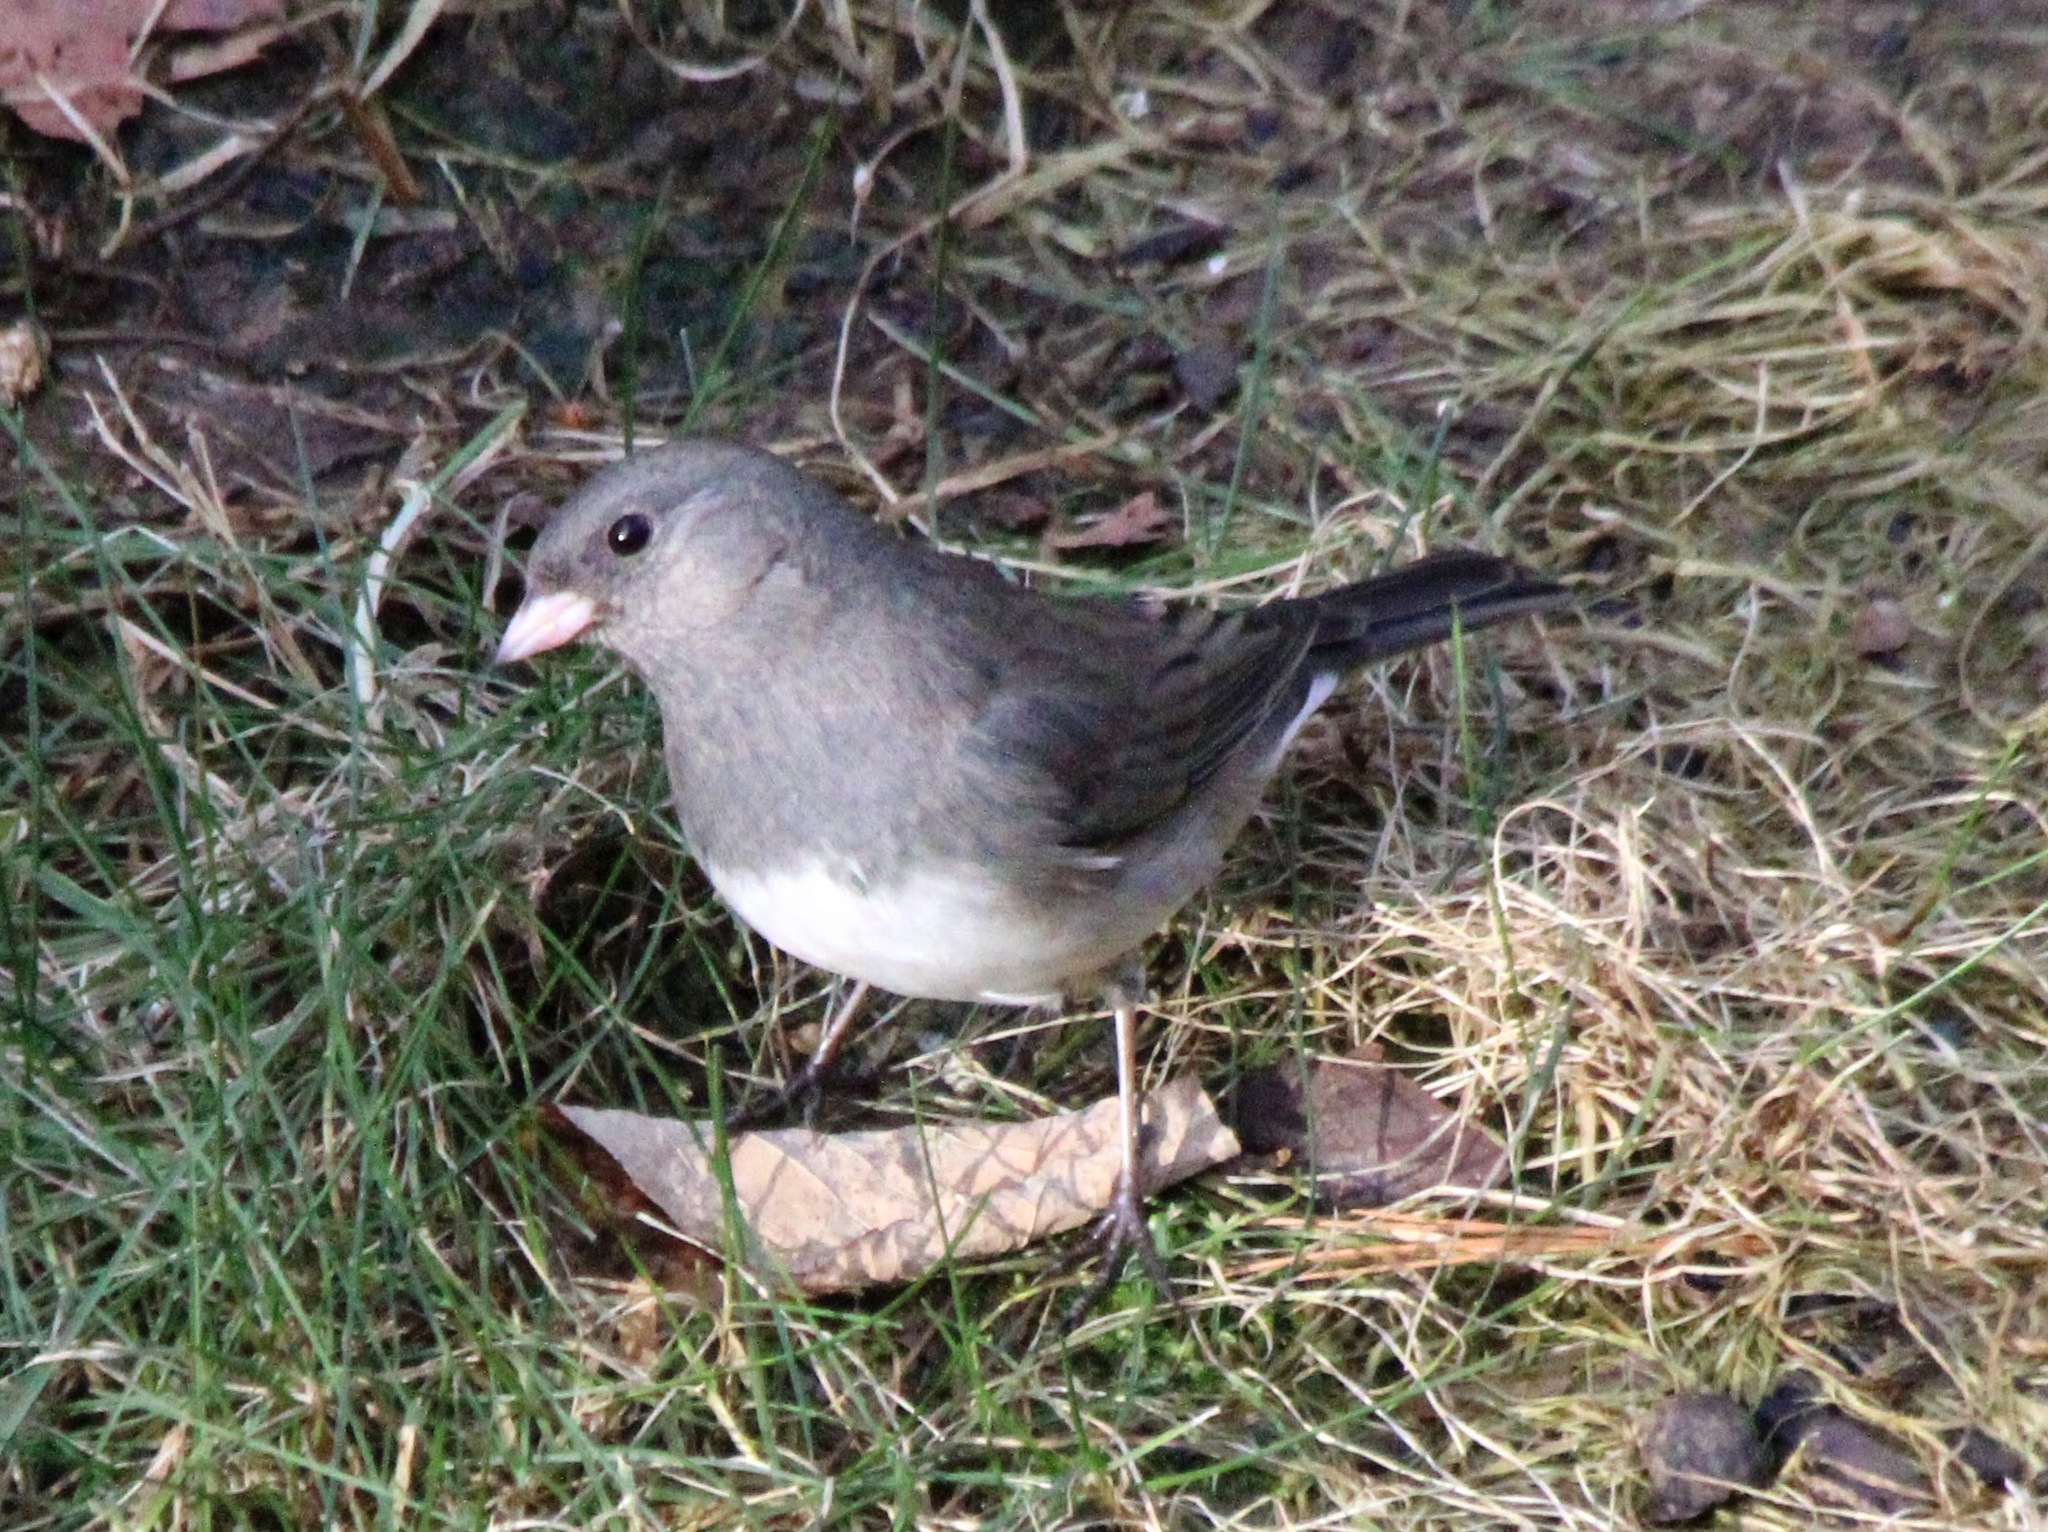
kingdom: Animalia
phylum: Chordata
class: Aves
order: Passeriformes
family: Passerellidae
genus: Junco
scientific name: Junco hyemalis
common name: Dark-eyed junco
